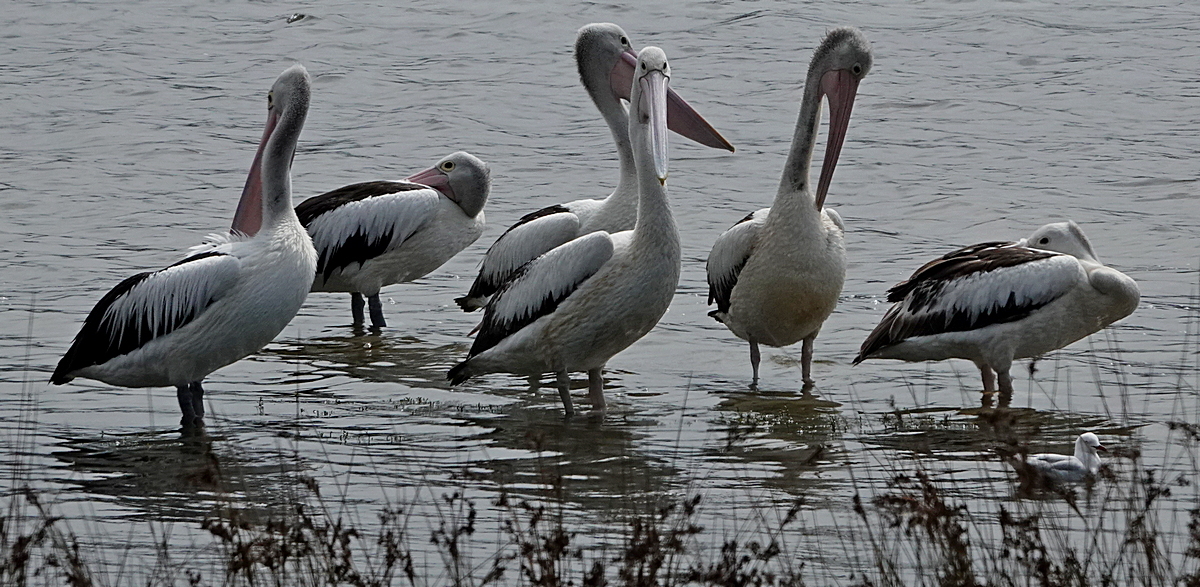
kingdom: Animalia
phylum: Chordata
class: Aves
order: Pelecaniformes
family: Pelecanidae
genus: Pelecanus
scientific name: Pelecanus conspicillatus
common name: Australian pelican
